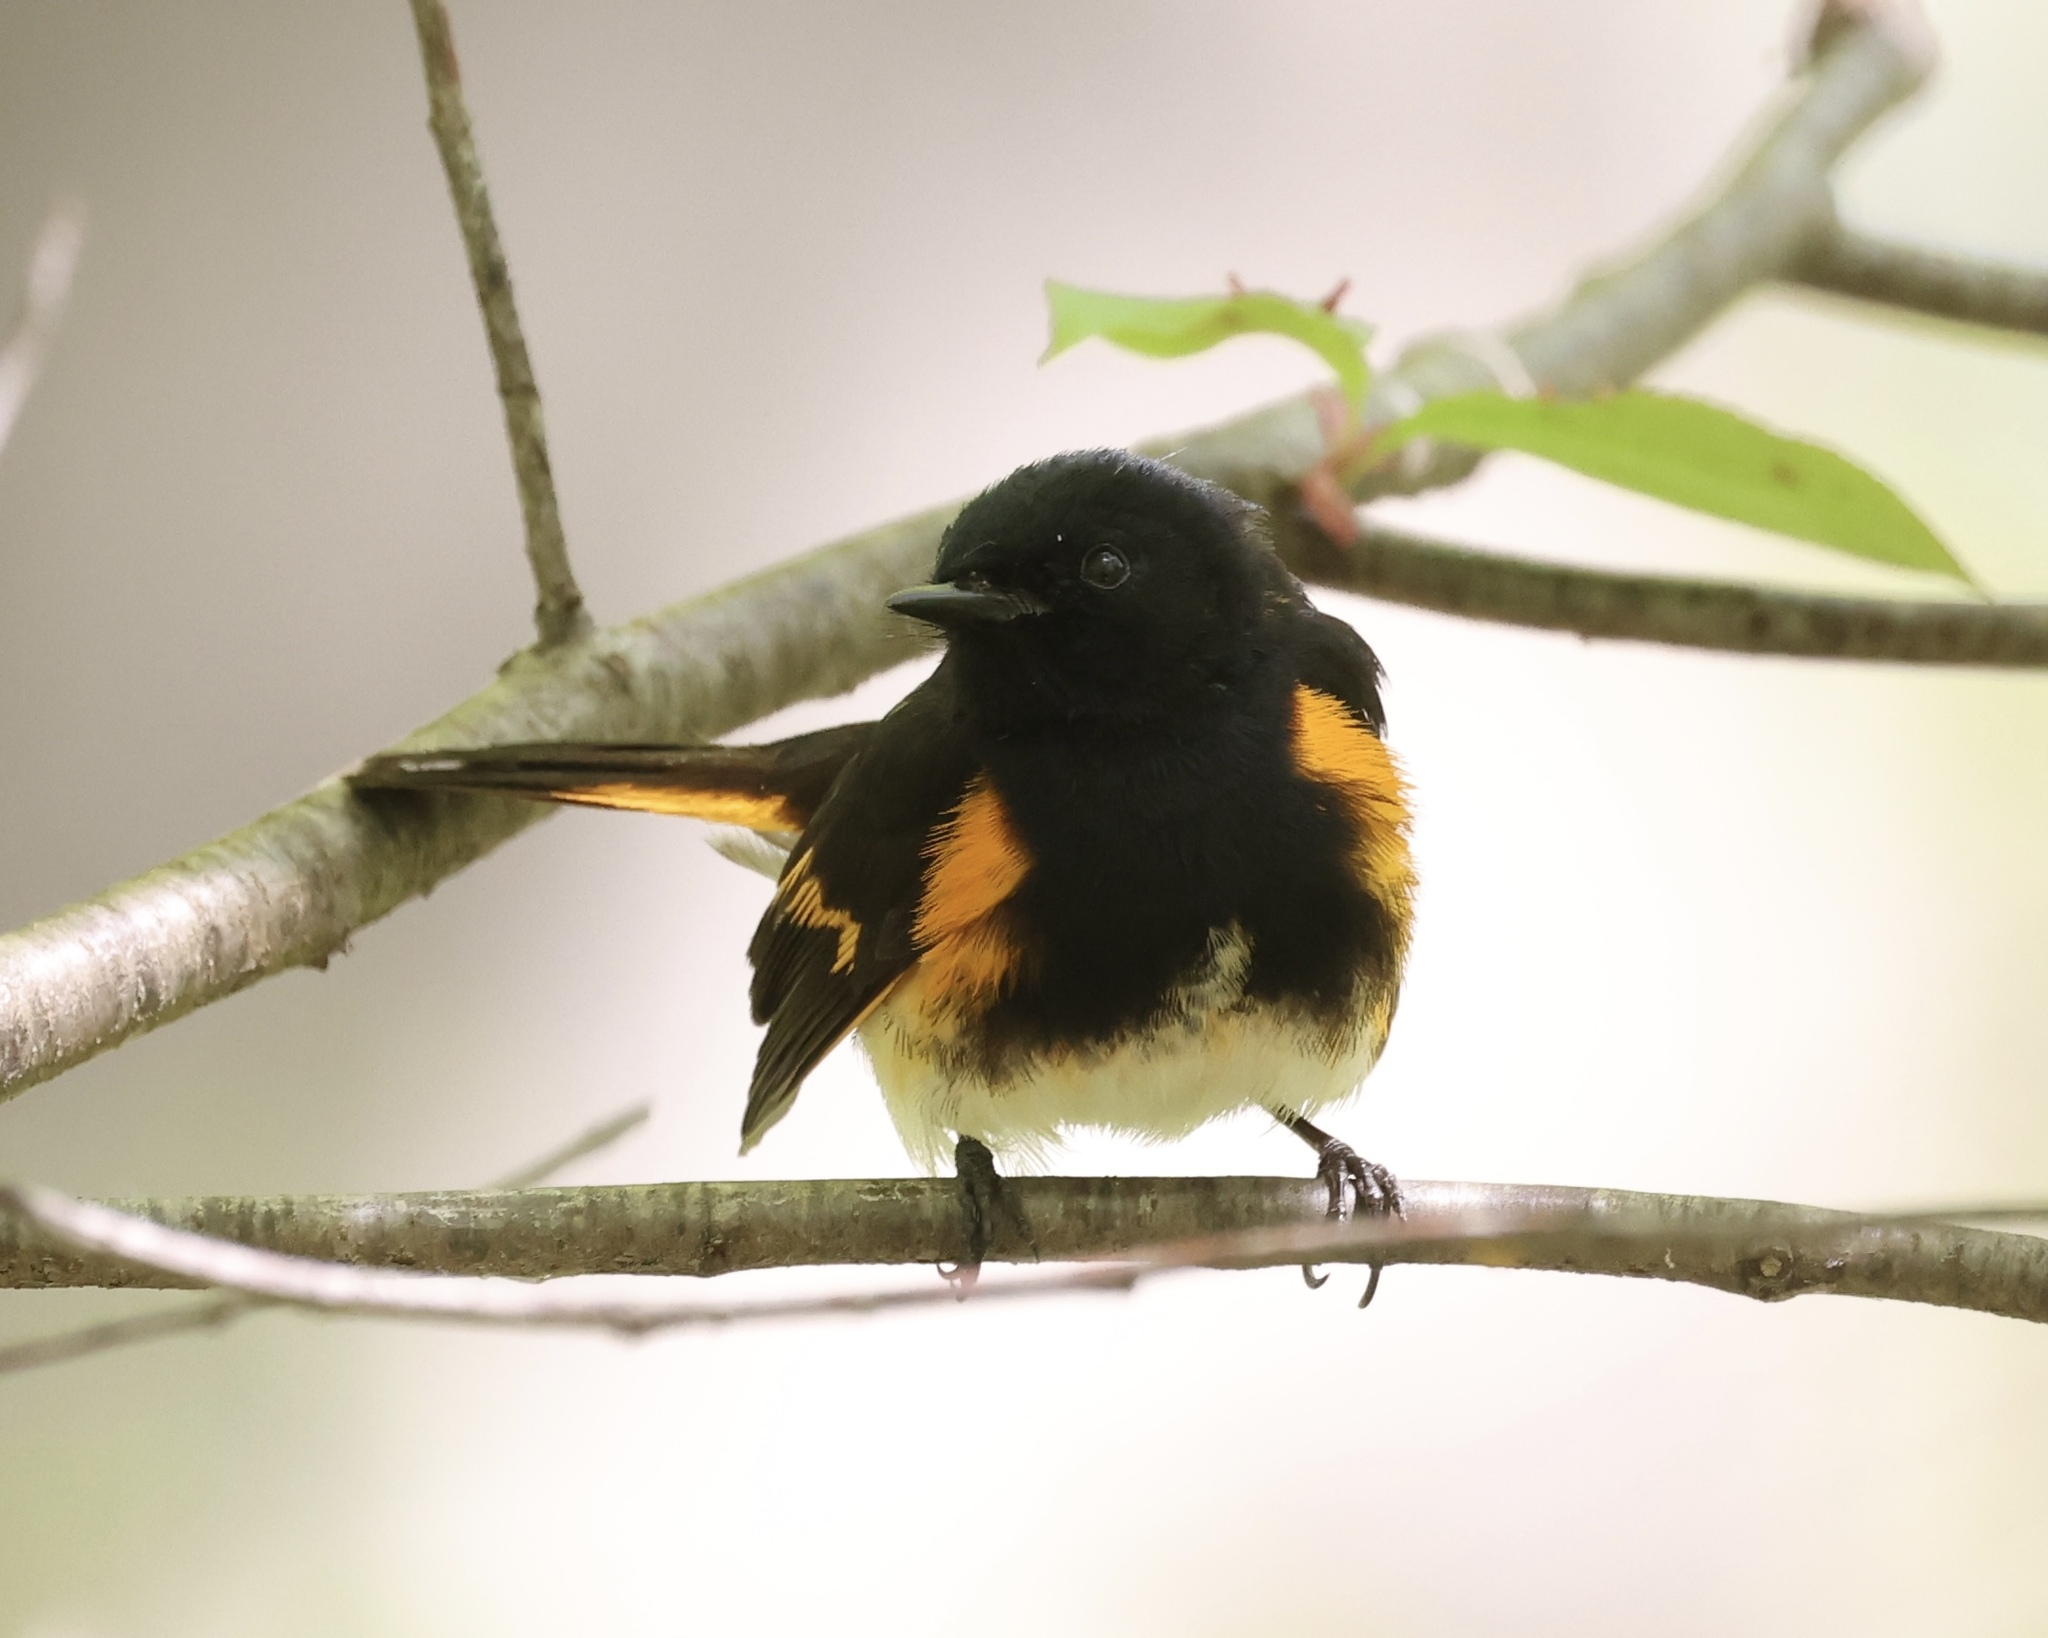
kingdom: Animalia
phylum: Chordata
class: Aves
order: Passeriformes
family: Parulidae
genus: Setophaga
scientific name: Setophaga ruticilla
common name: American redstart
